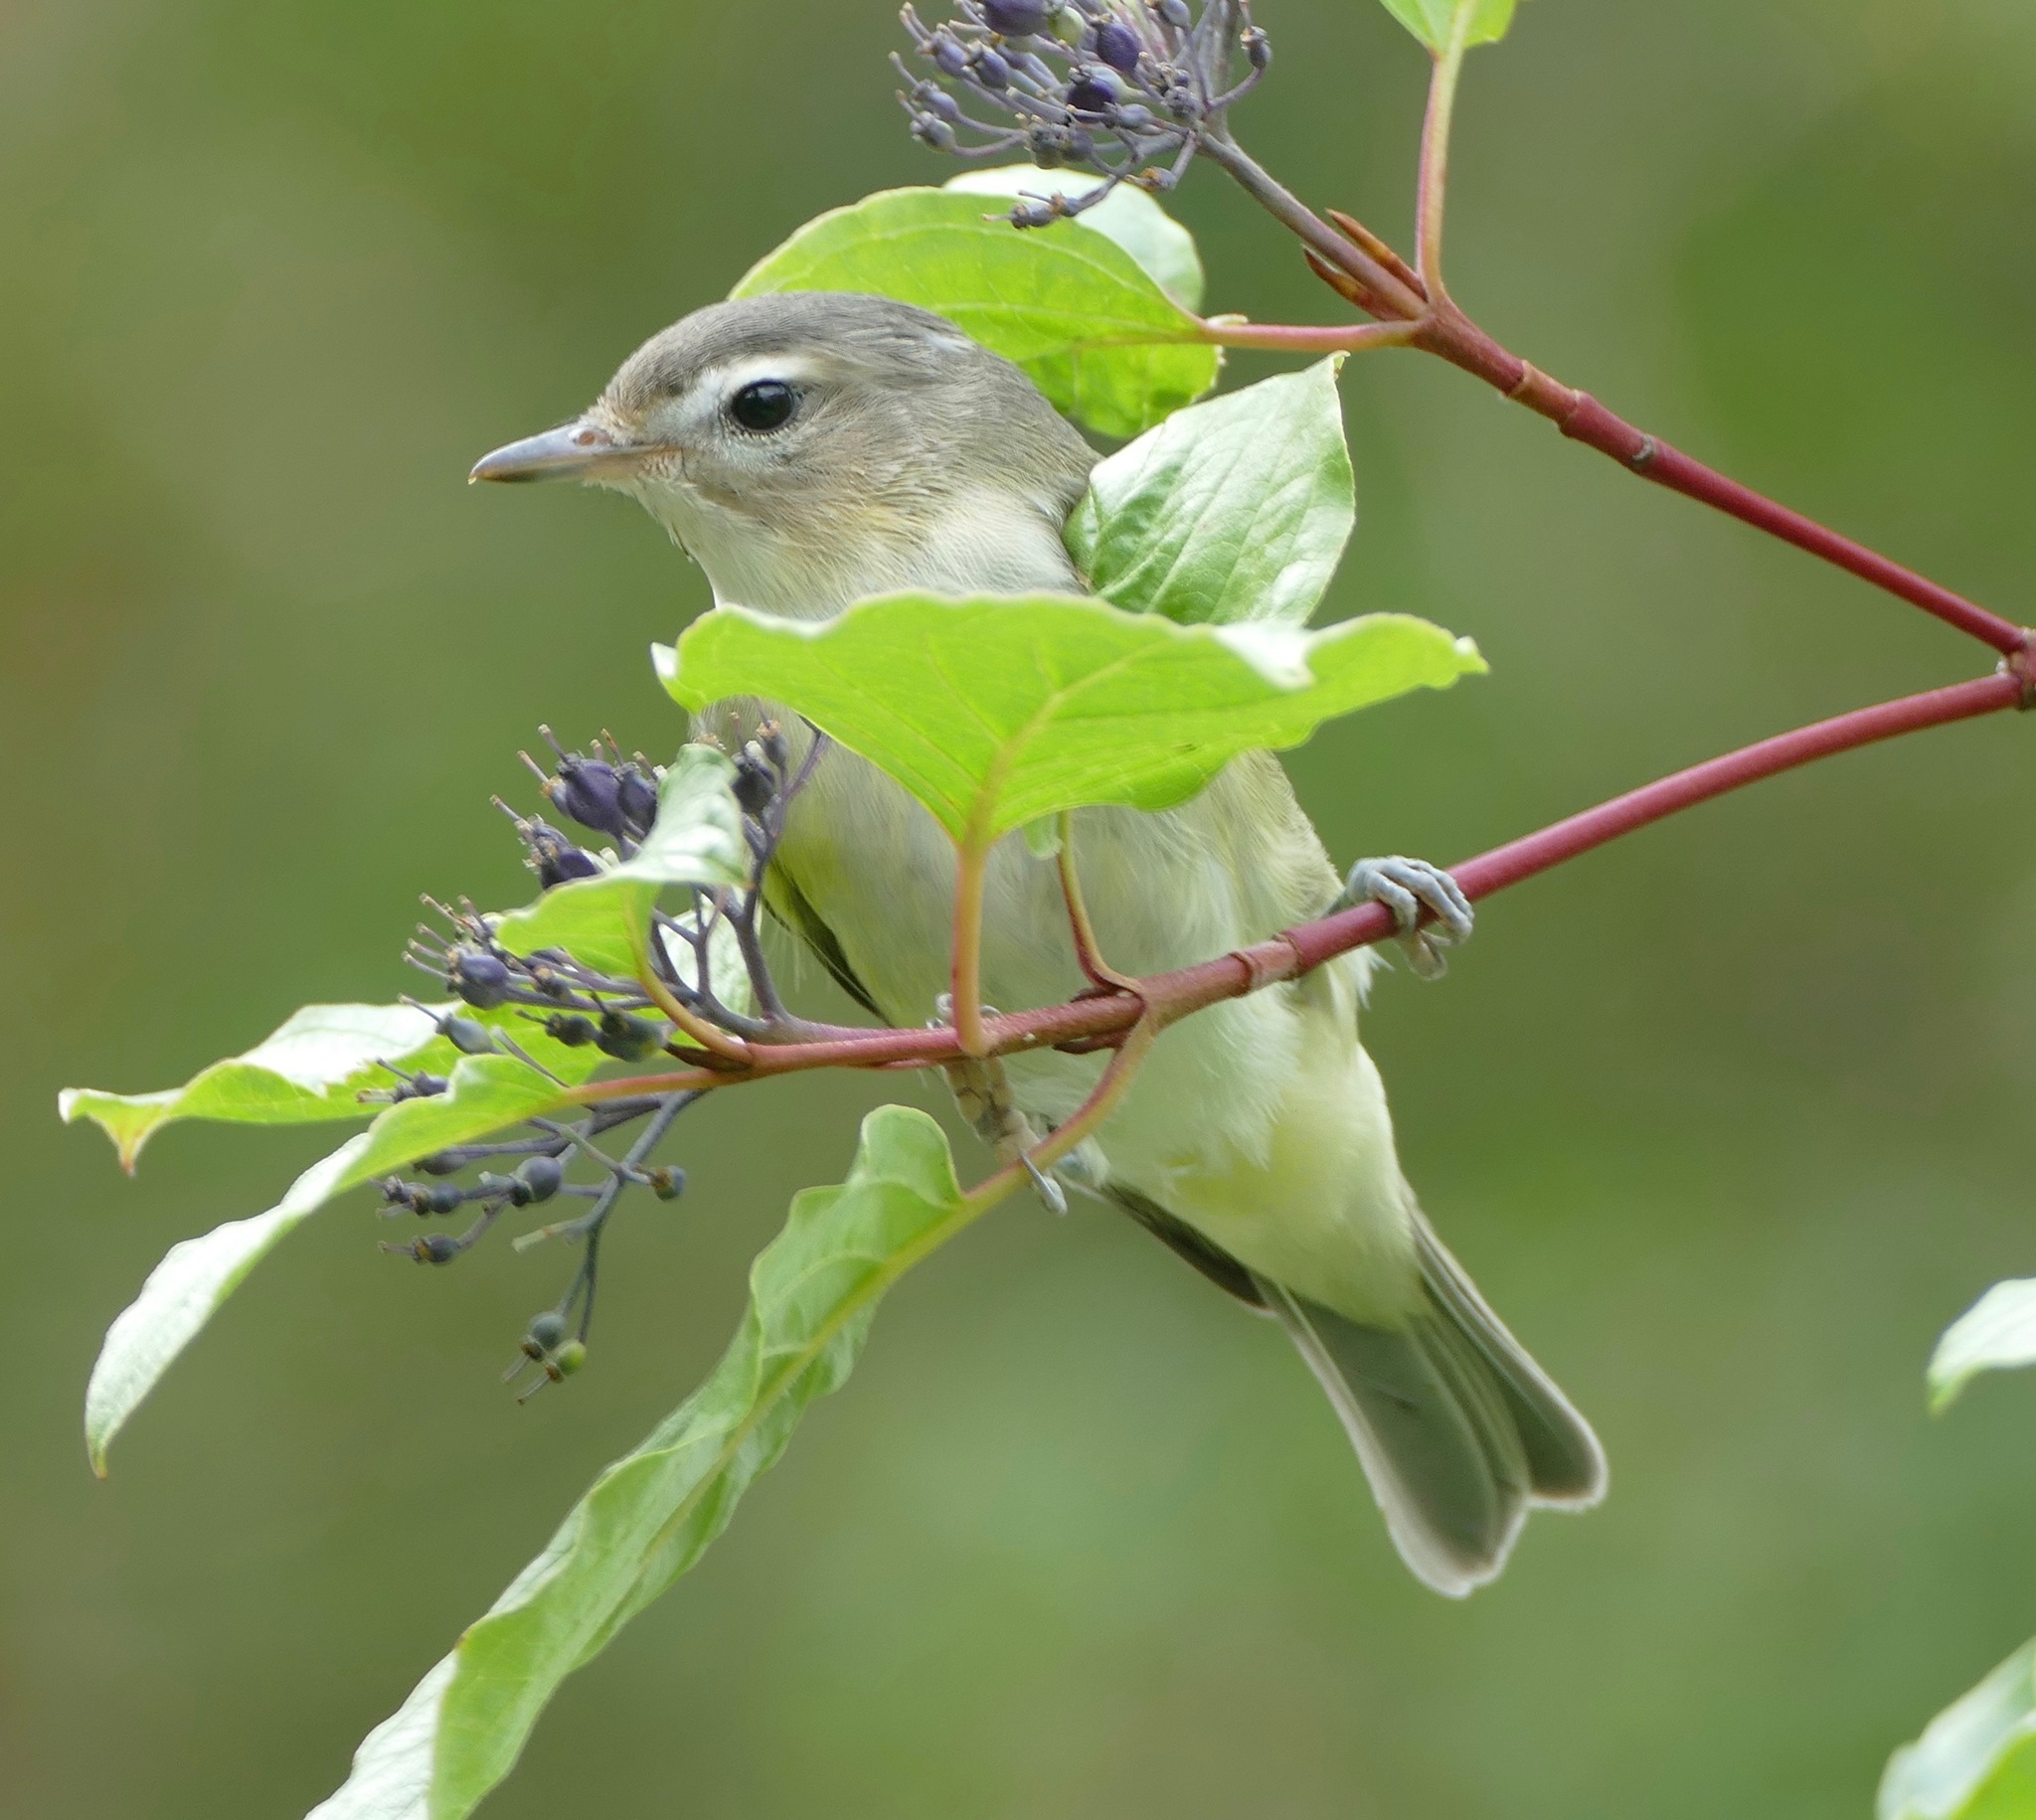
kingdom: Animalia
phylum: Chordata
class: Aves
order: Passeriformes
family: Vireonidae
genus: Vireo
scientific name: Vireo gilvus
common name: Warbling vireo
